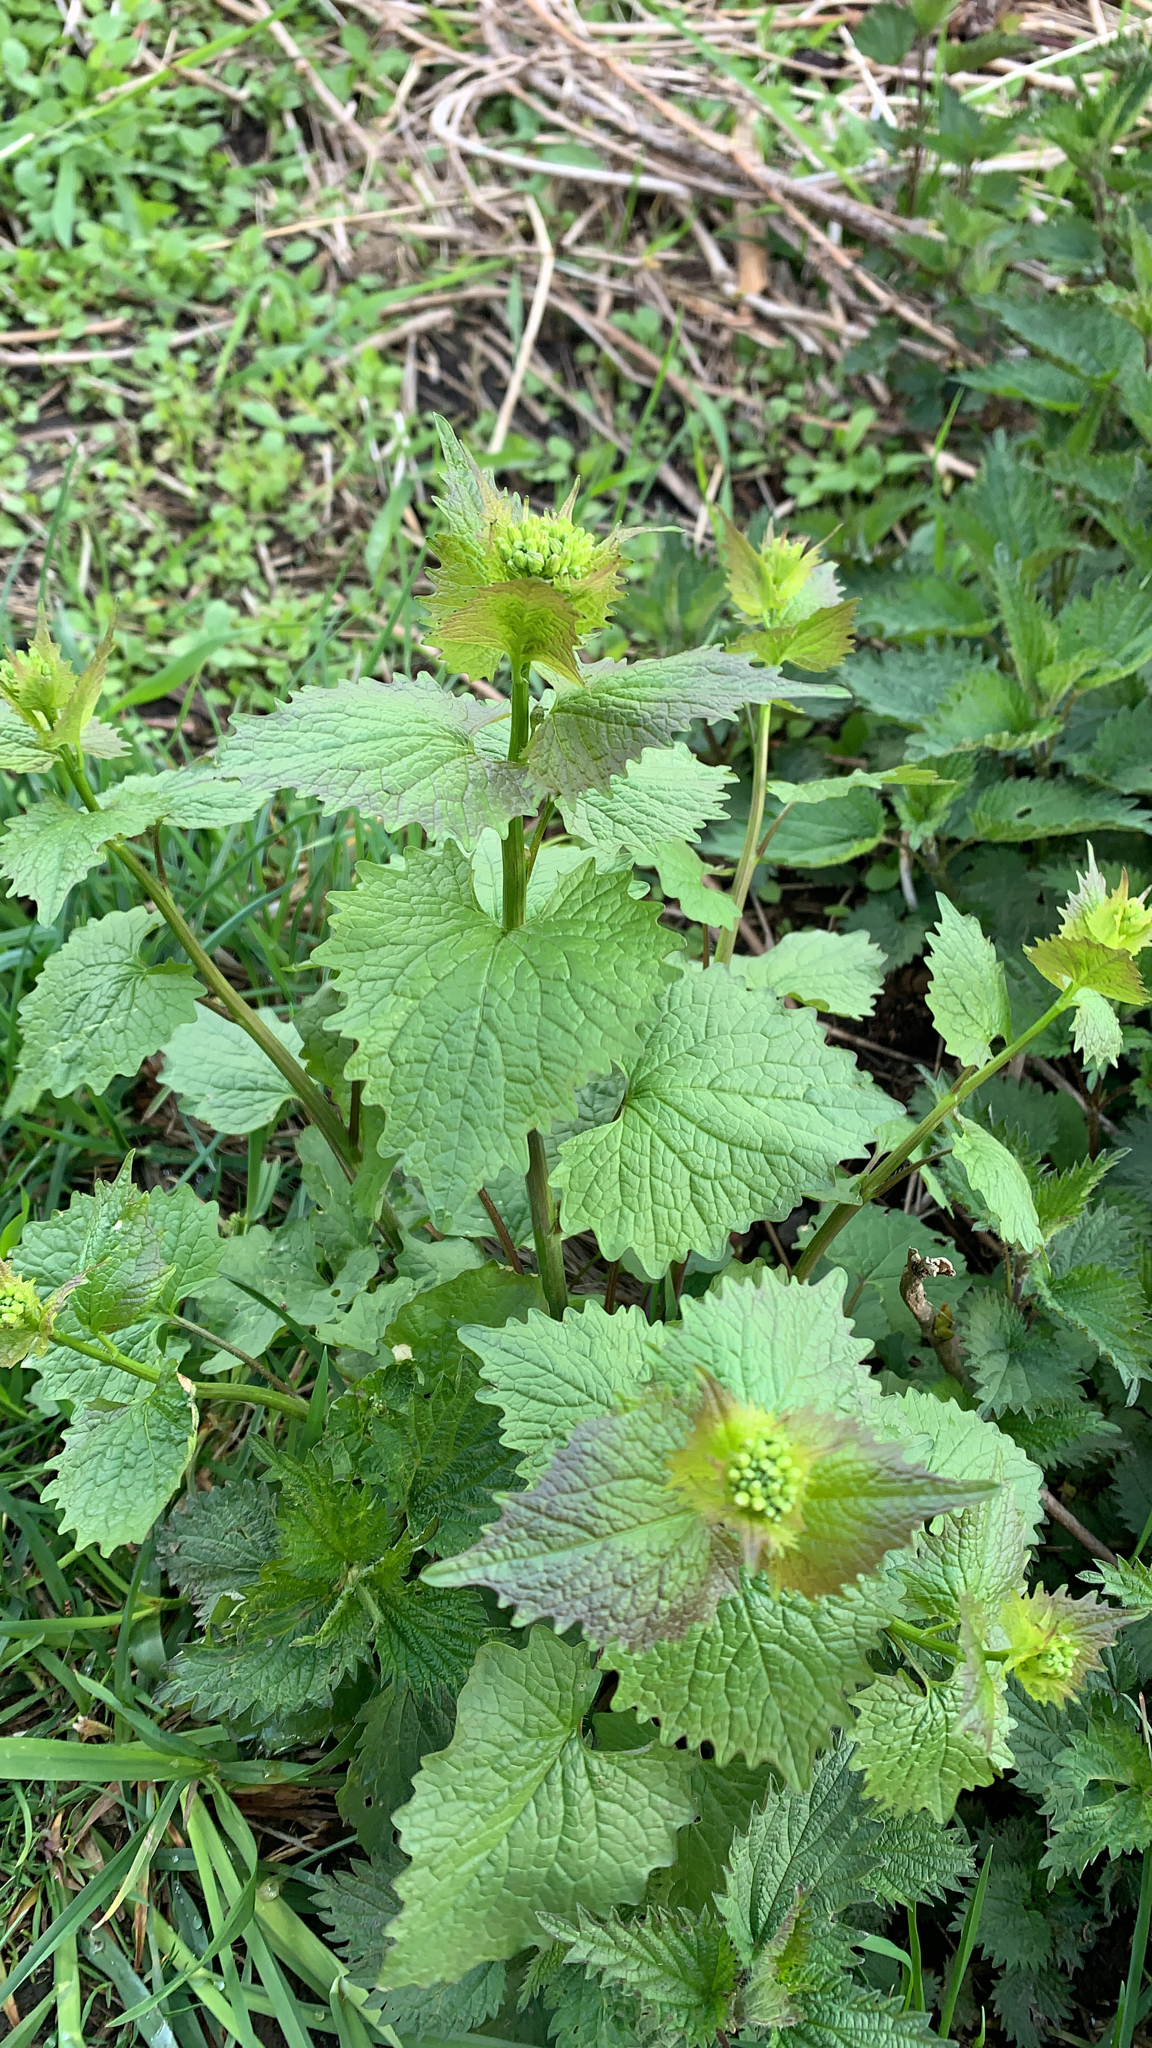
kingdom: Plantae
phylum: Tracheophyta
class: Magnoliopsida
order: Brassicales
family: Brassicaceae
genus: Alliaria
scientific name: Alliaria petiolata
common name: Garlic mustard
